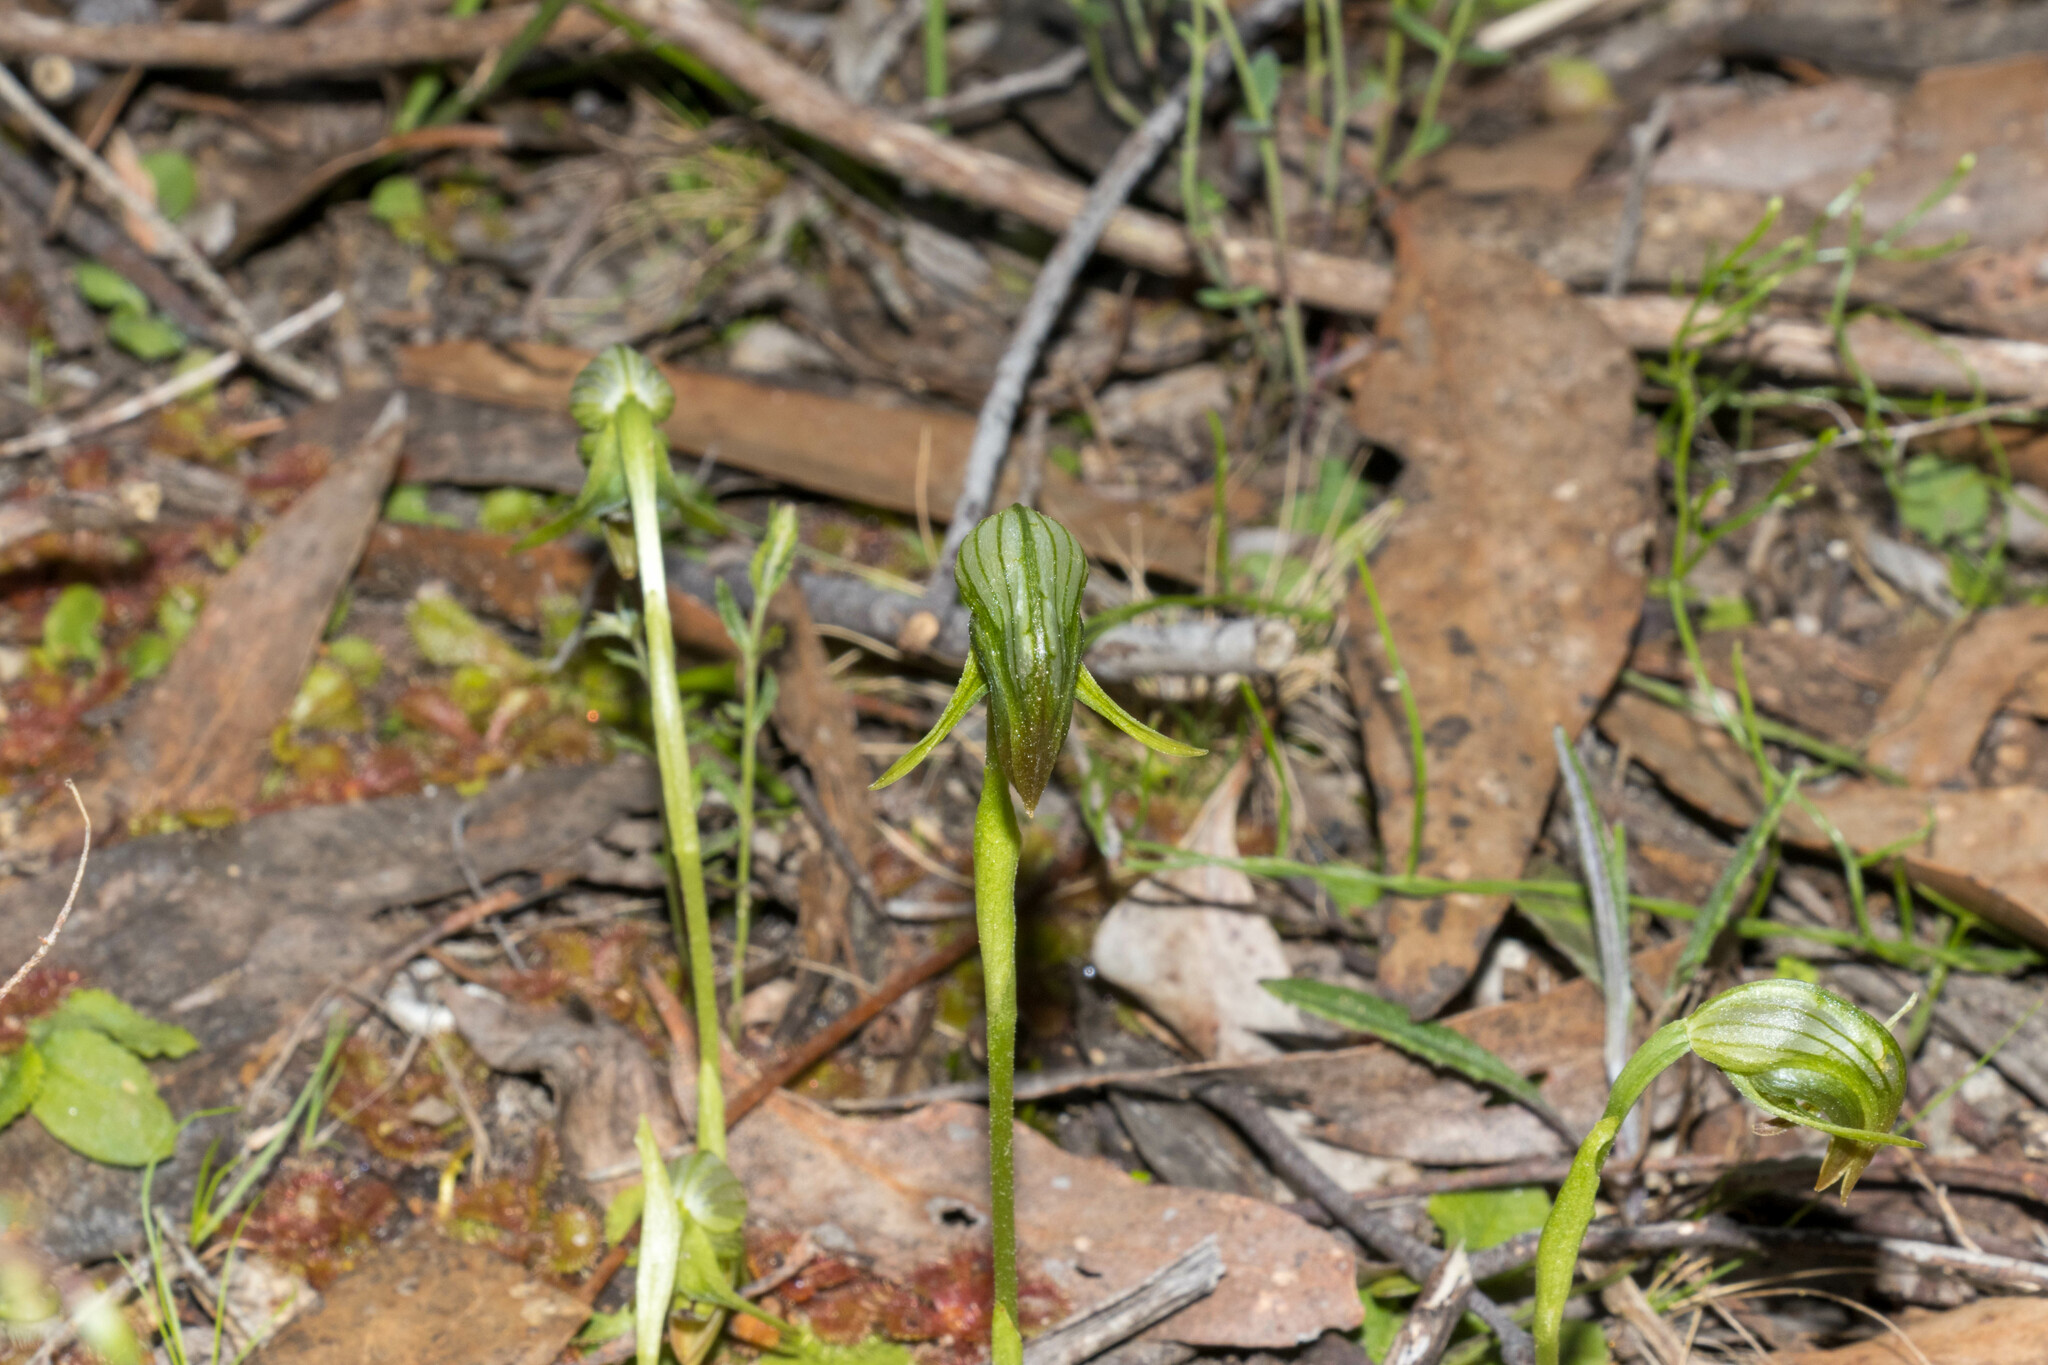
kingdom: Plantae
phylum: Tracheophyta
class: Liliopsida
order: Asparagales
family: Orchidaceae
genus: Pterostylis
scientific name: Pterostylis nutans
